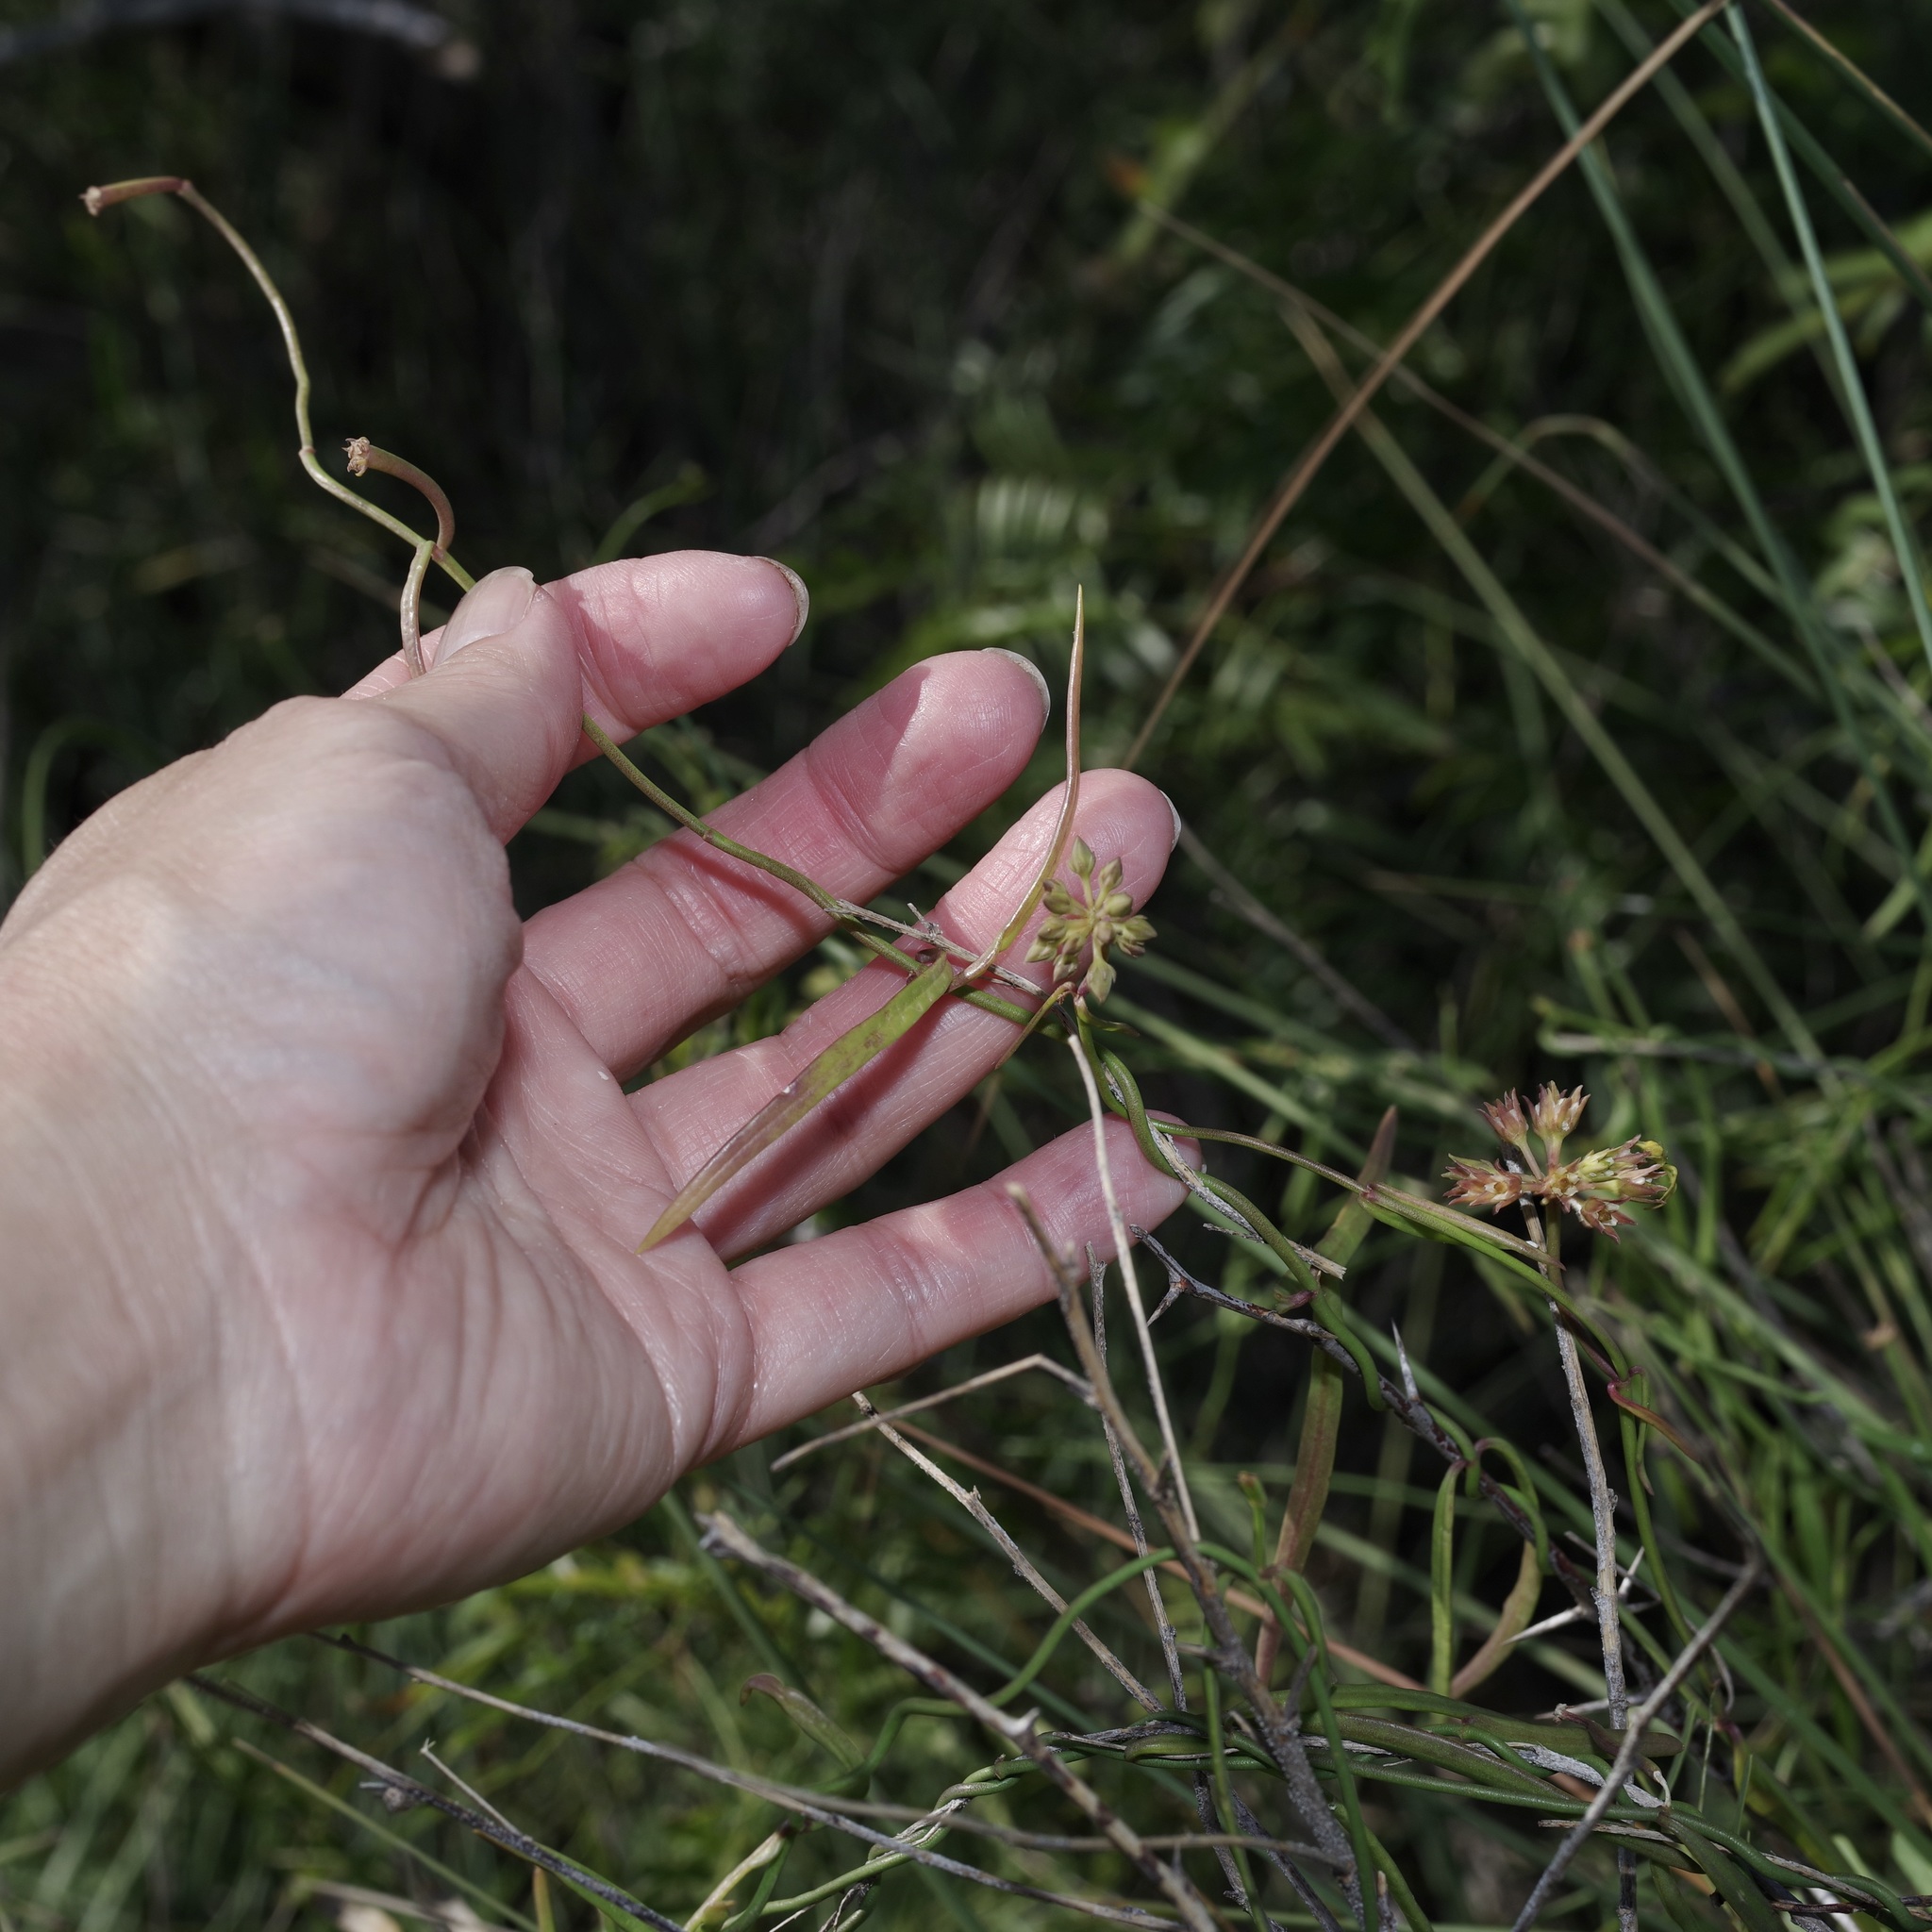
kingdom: Plantae
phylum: Tracheophyta
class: Magnoliopsida
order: Gentianales
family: Apocynaceae
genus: Pattalias
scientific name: Pattalias
